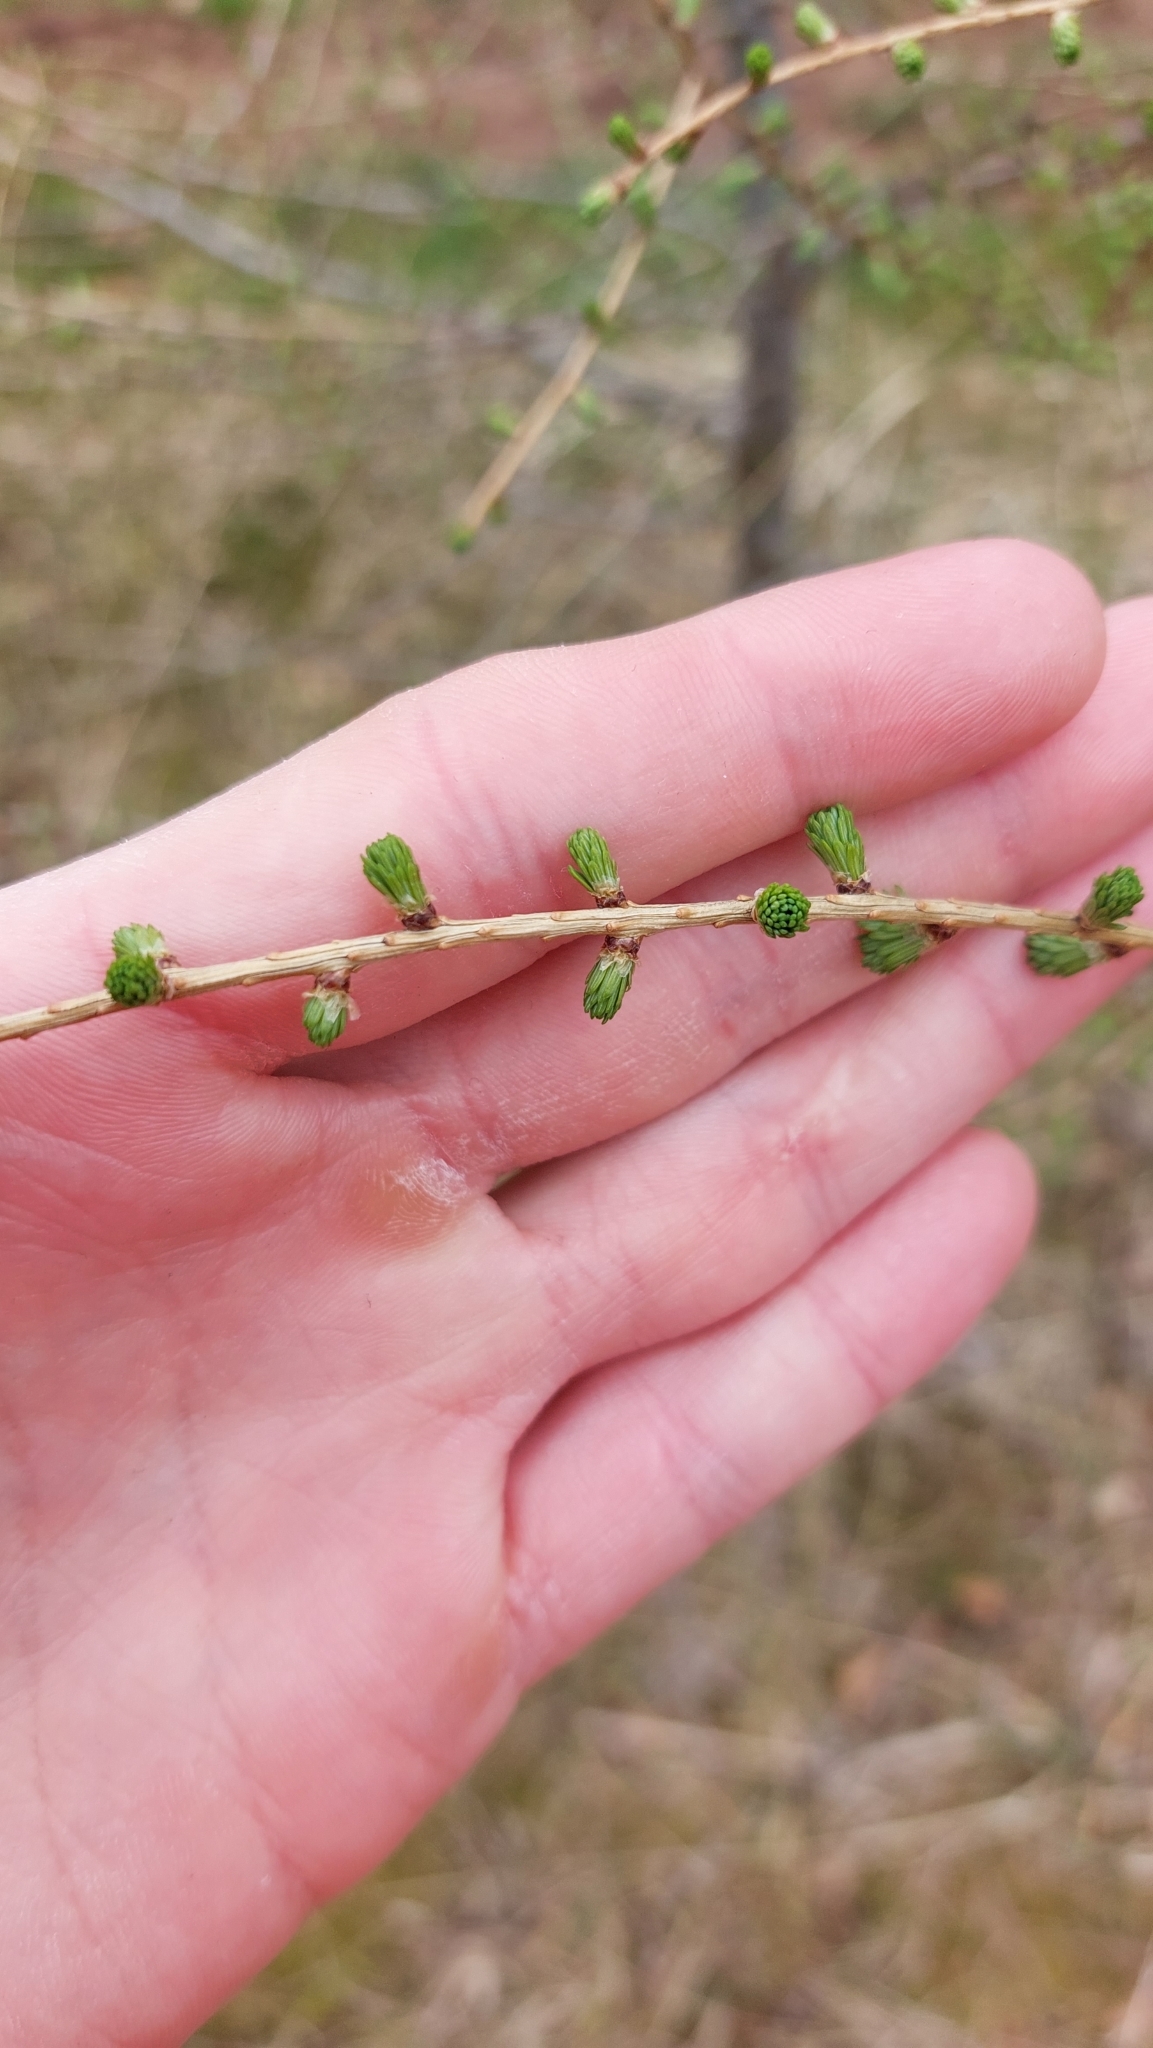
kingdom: Plantae
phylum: Tracheophyta
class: Pinopsida
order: Pinales
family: Pinaceae
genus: Larix
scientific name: Larix decidua
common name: European larch
